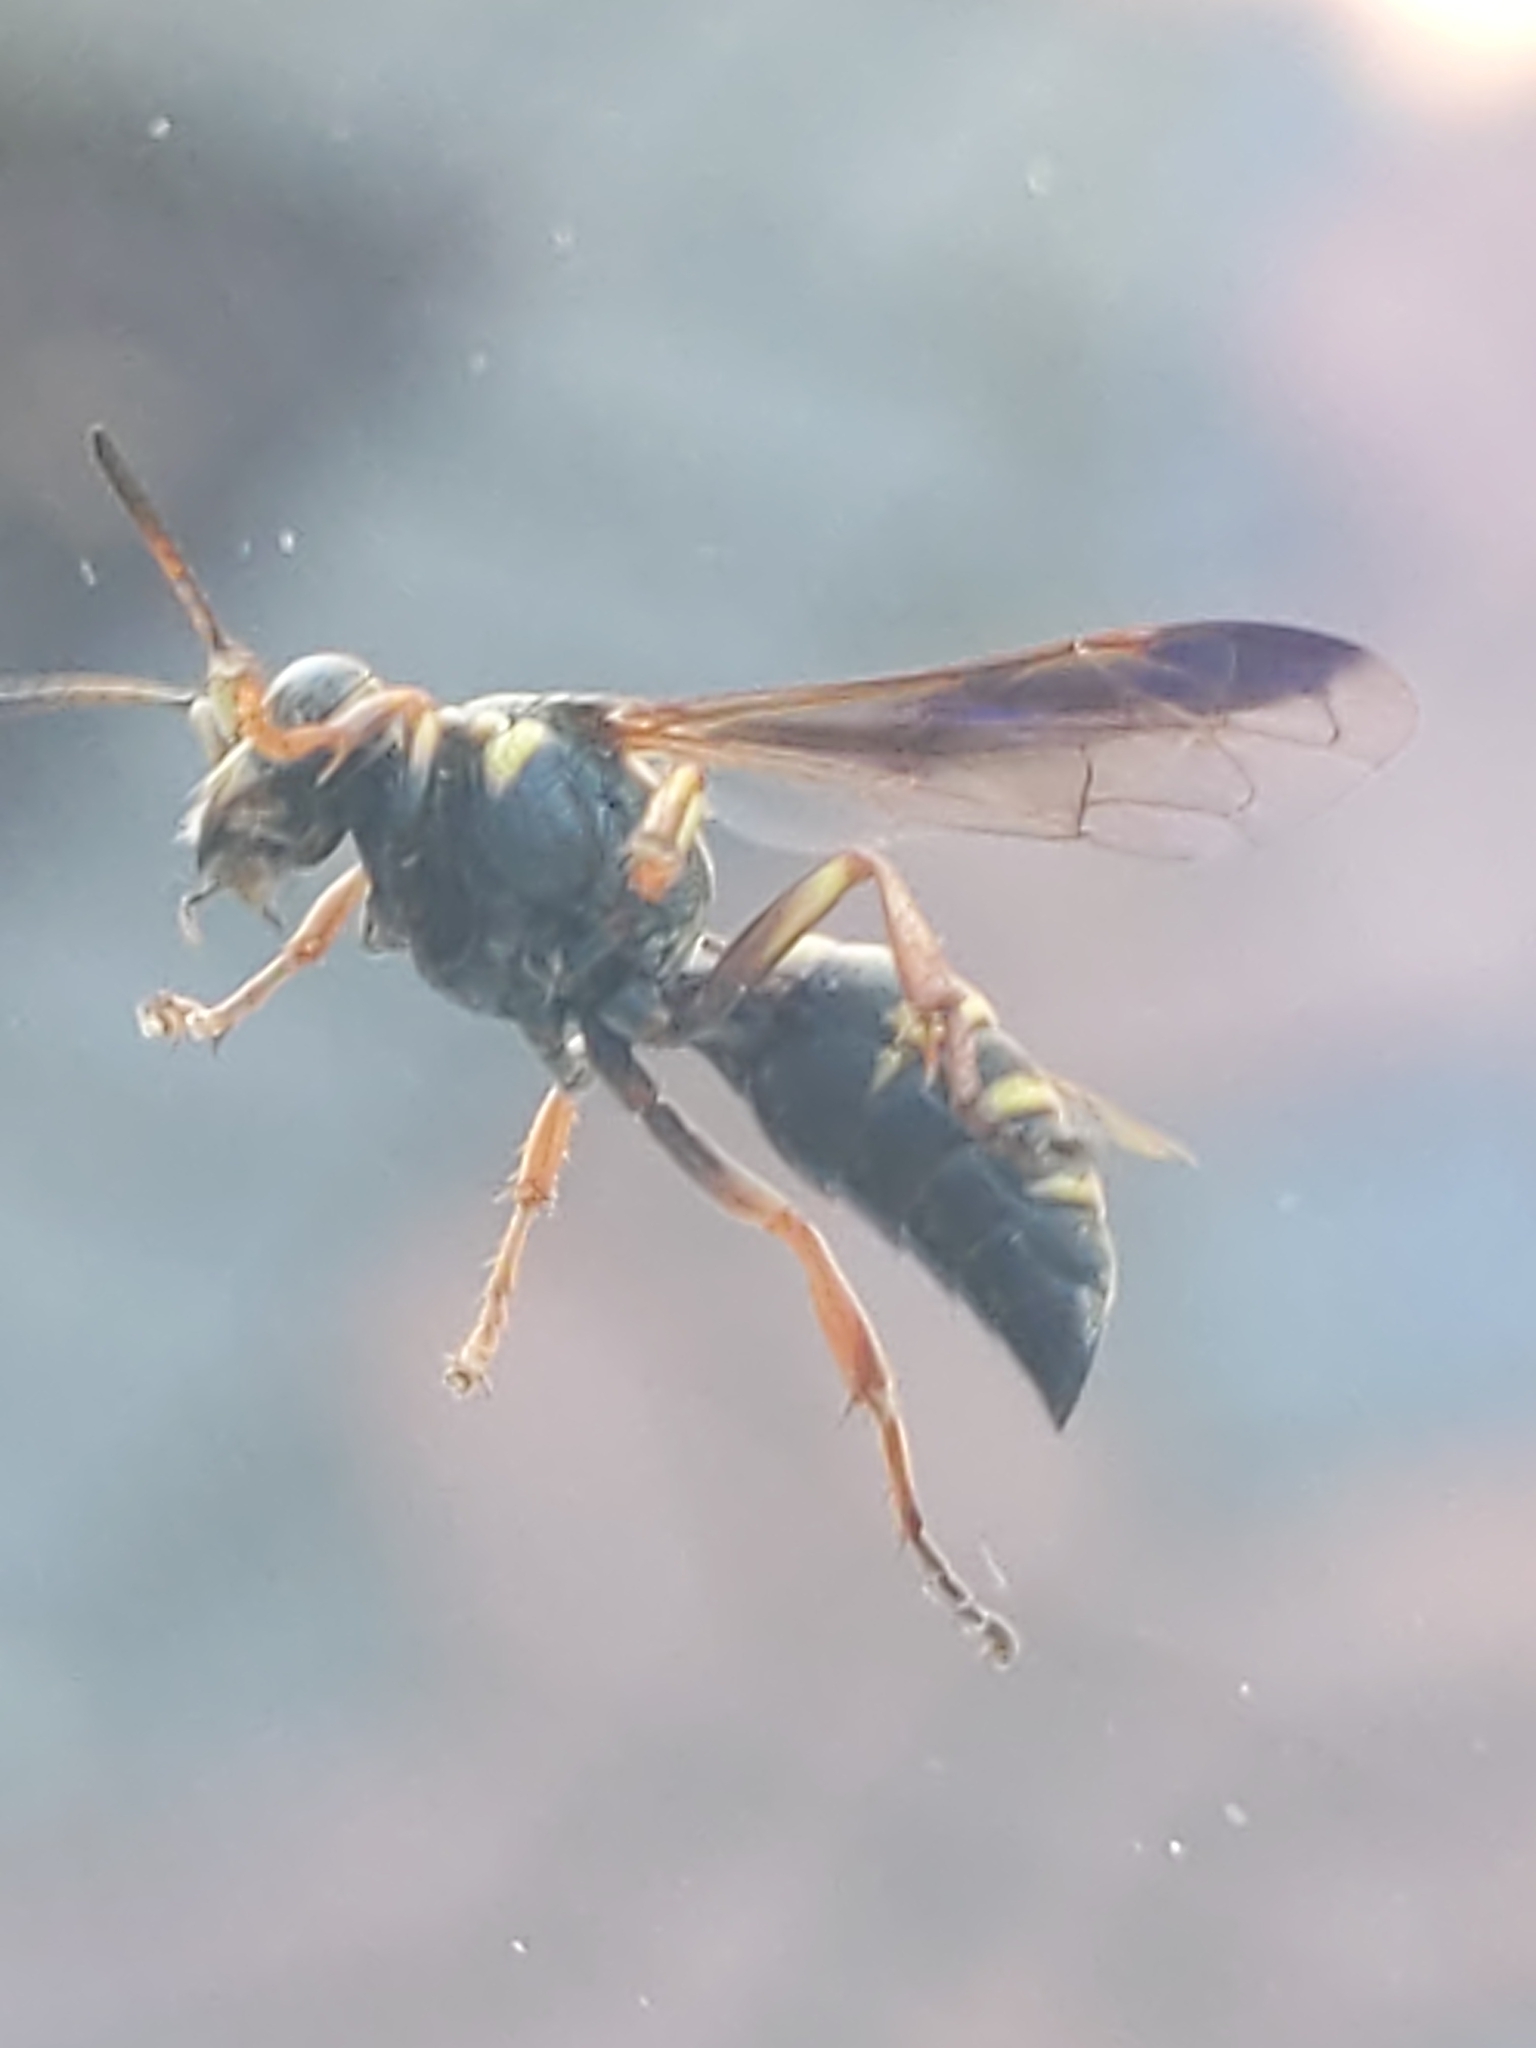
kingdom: Animalia
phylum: Arthropoda
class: Insecta
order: Hymenoptera
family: Crabronidae
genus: Hoplisoides
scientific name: Hoplisoides
